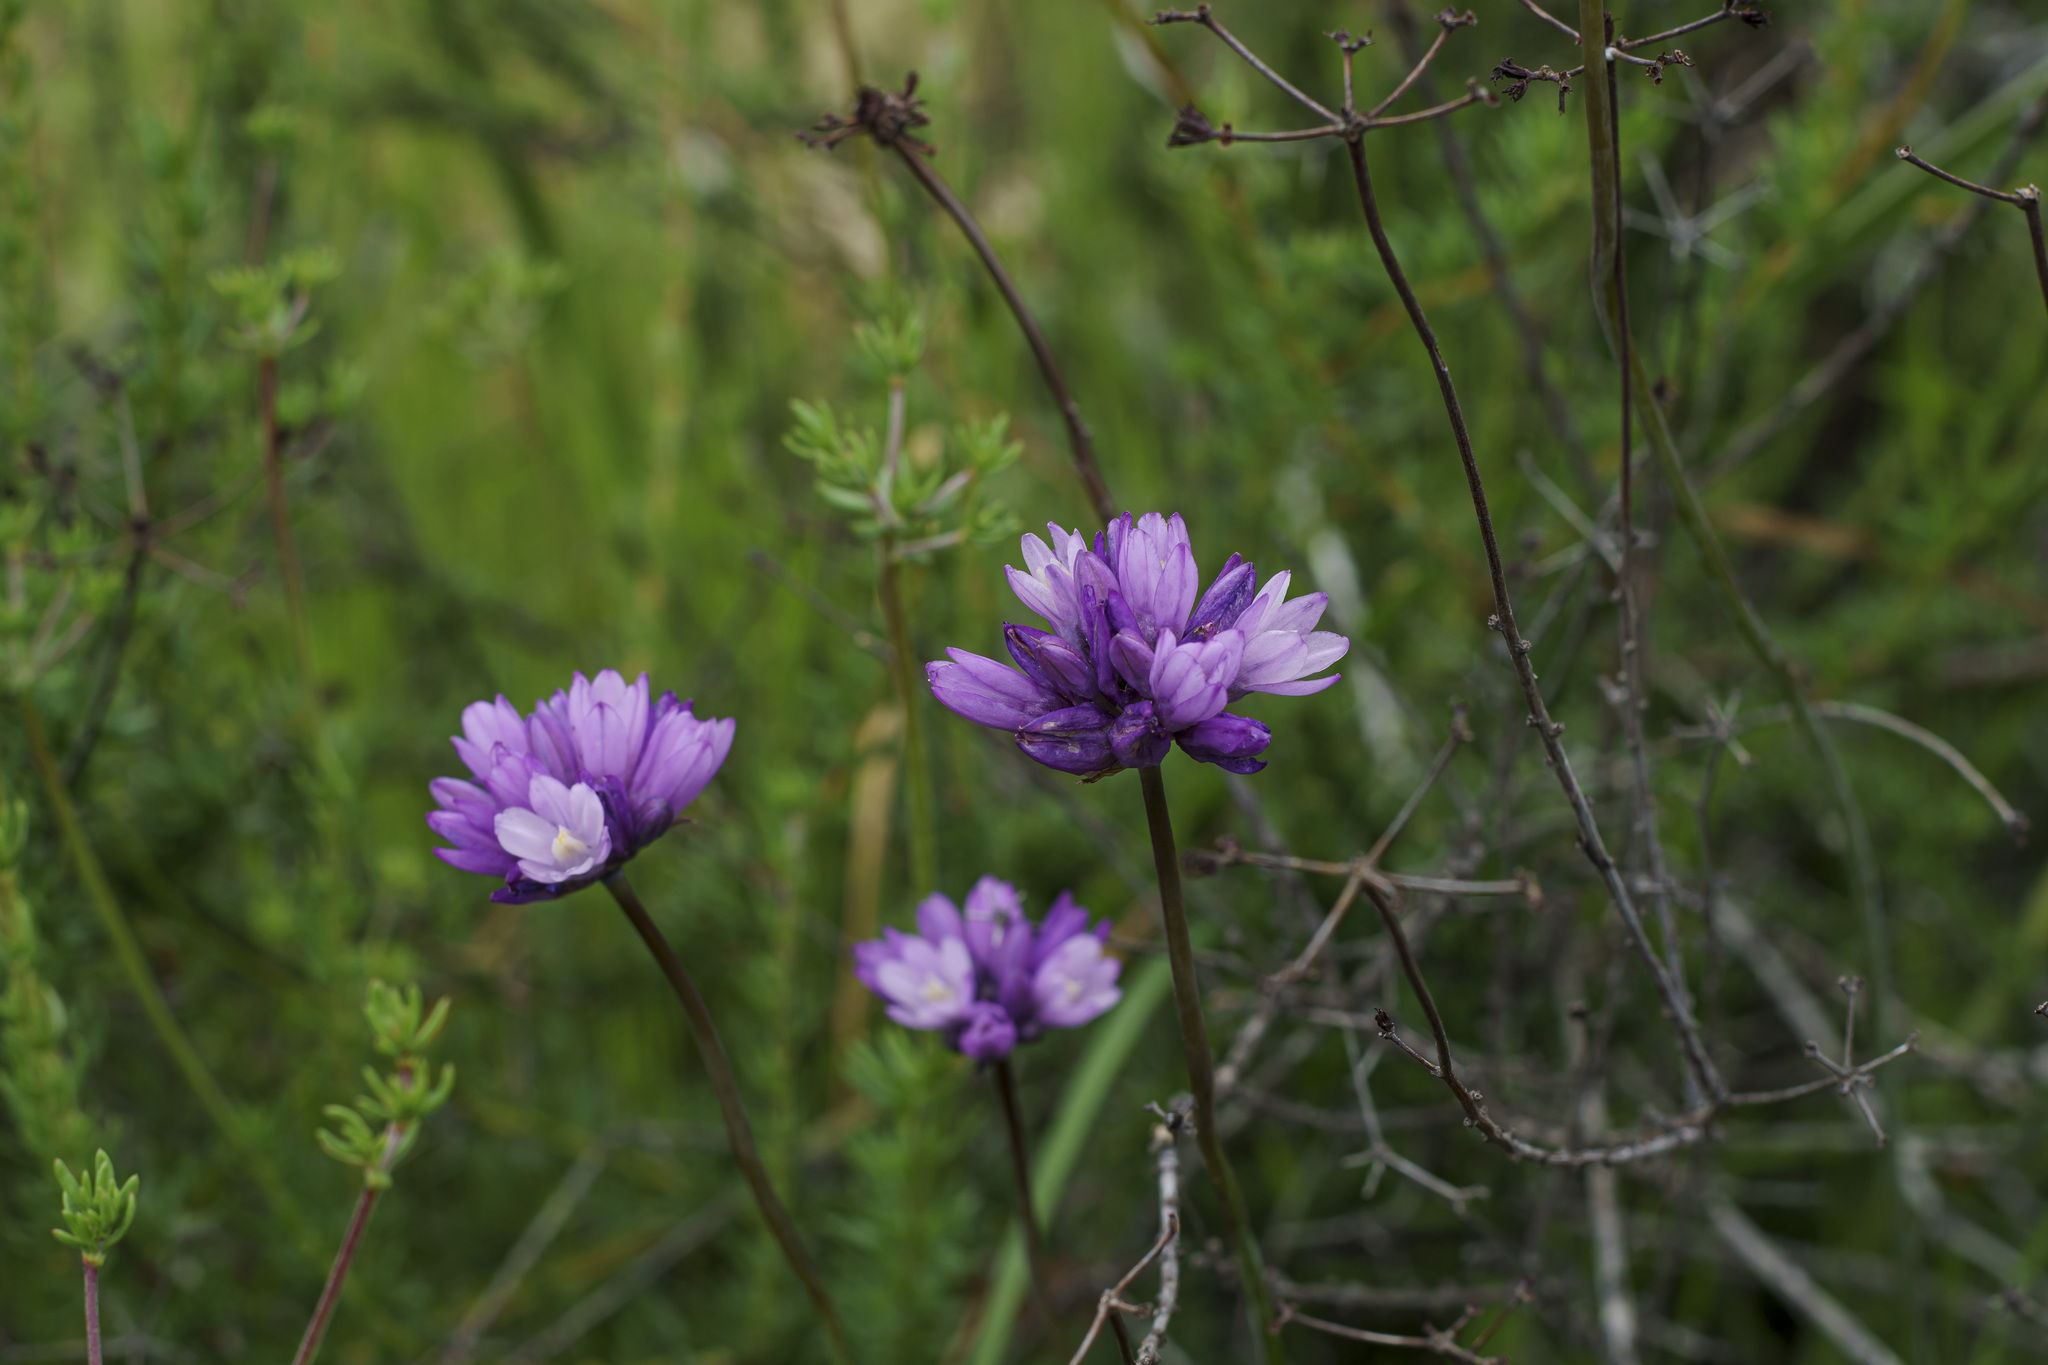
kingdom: Plantae
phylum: Tracheophyta
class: Liliopsida
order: Asparagales
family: Asparagaceae
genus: Dipterostemon
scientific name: Dipterostemon capitatus
